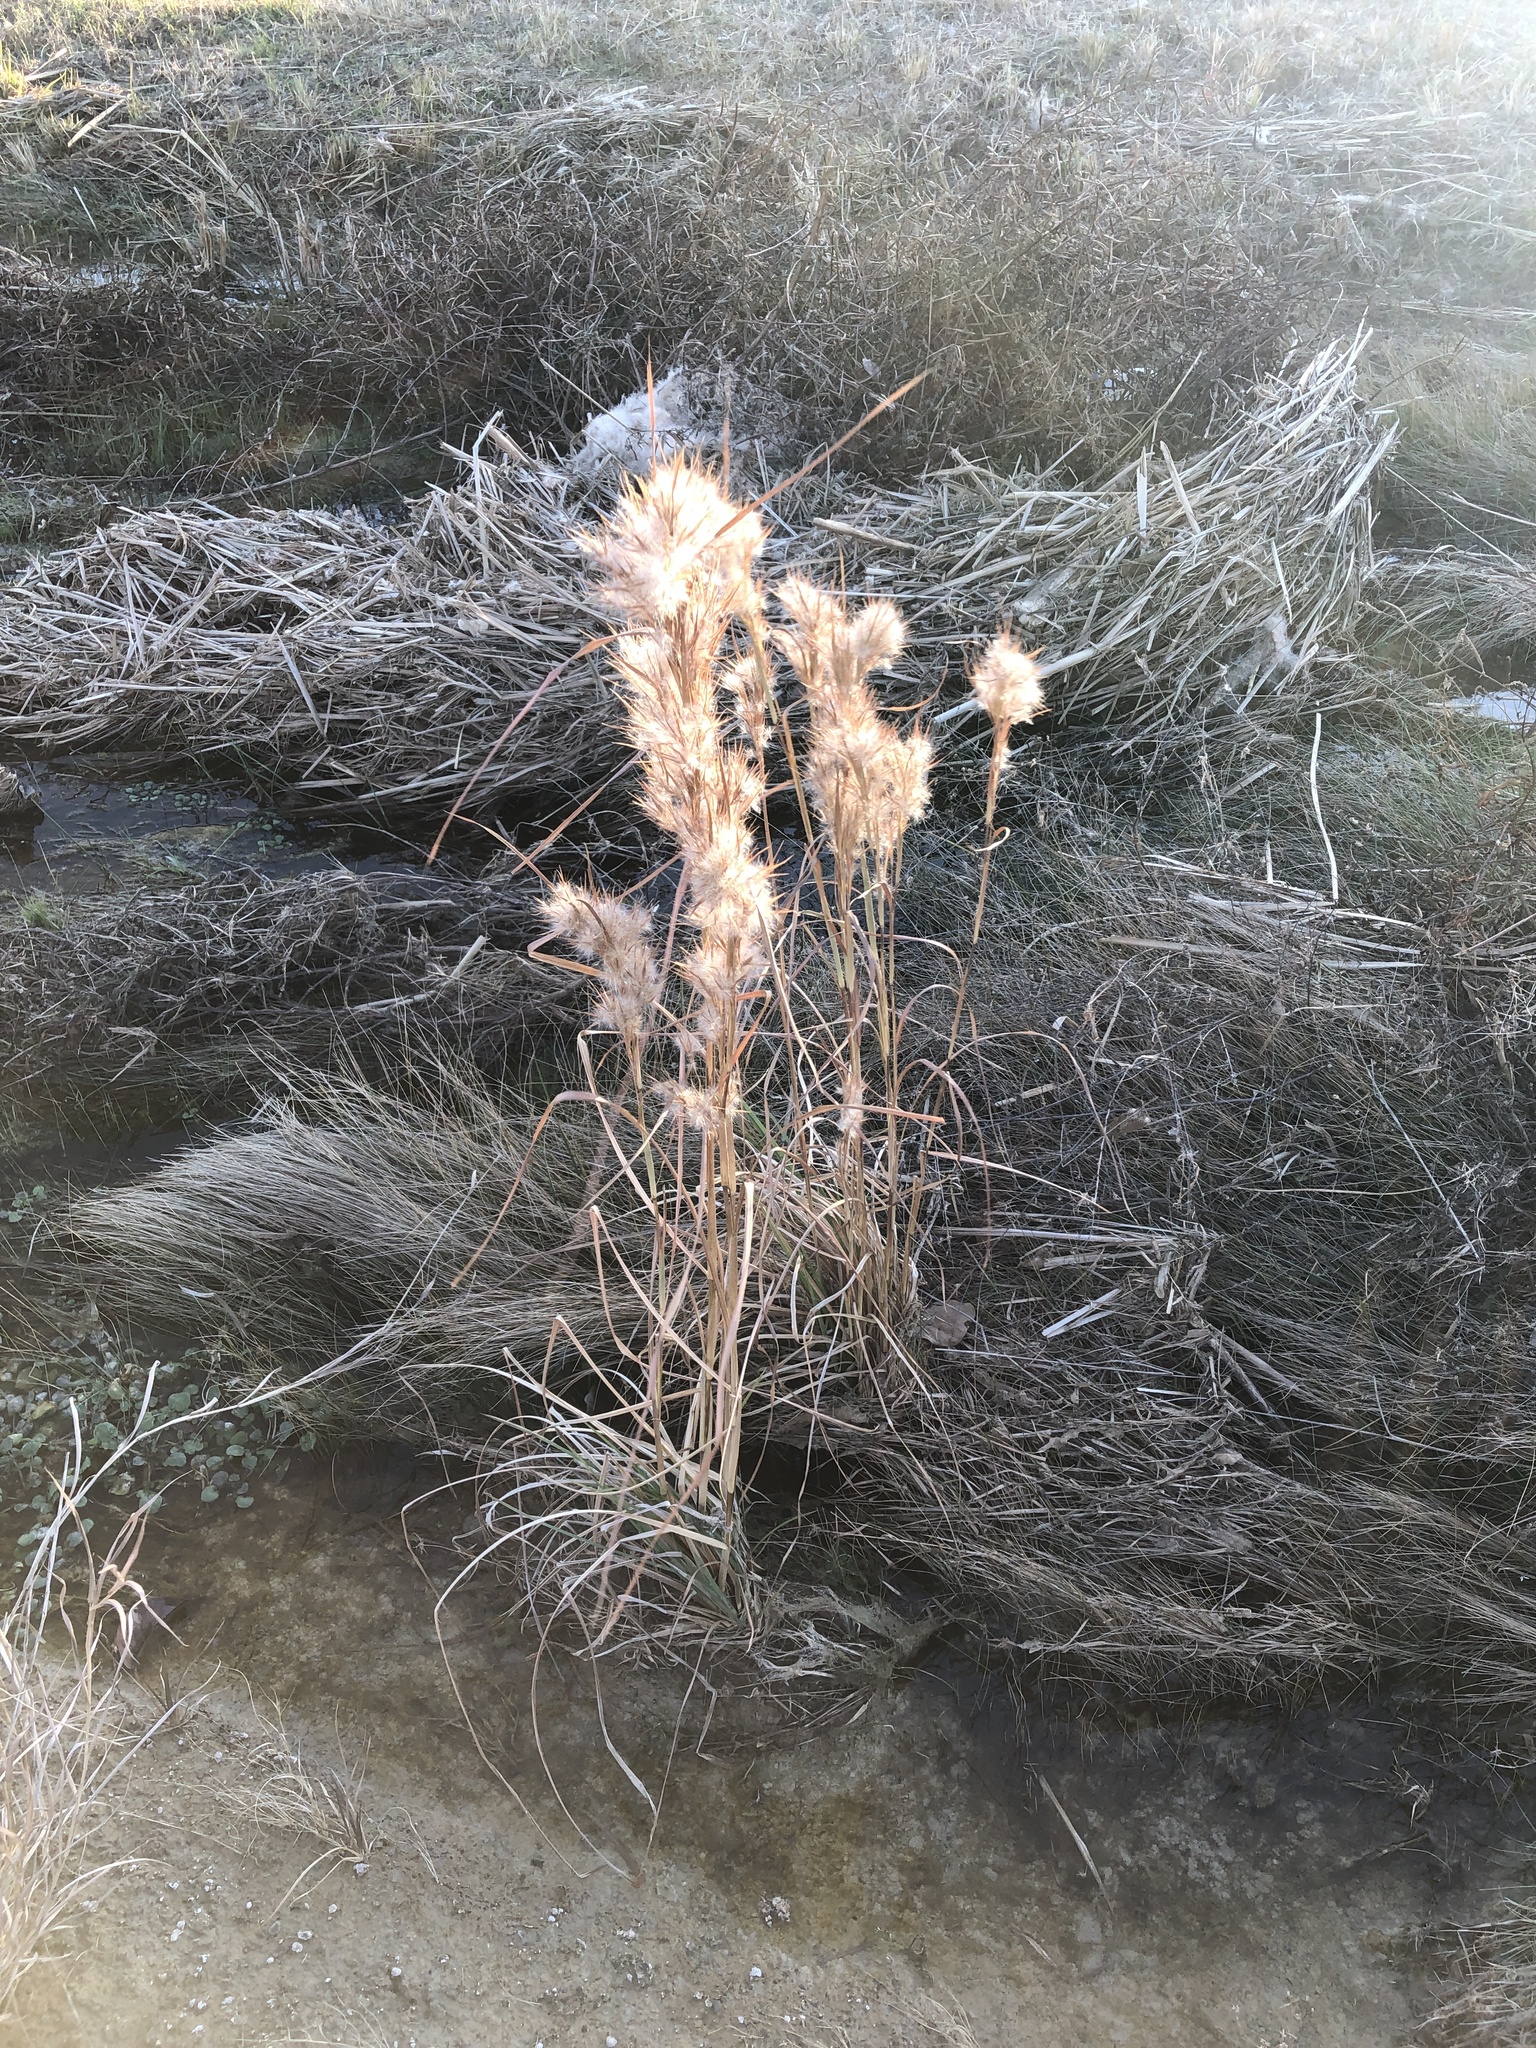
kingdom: Plantae
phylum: Tracheophyta
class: Liliopsida
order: Poales
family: Poaceae
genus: Andropogon
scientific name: Andropogon tenuispatheus
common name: Bushy bluestem
